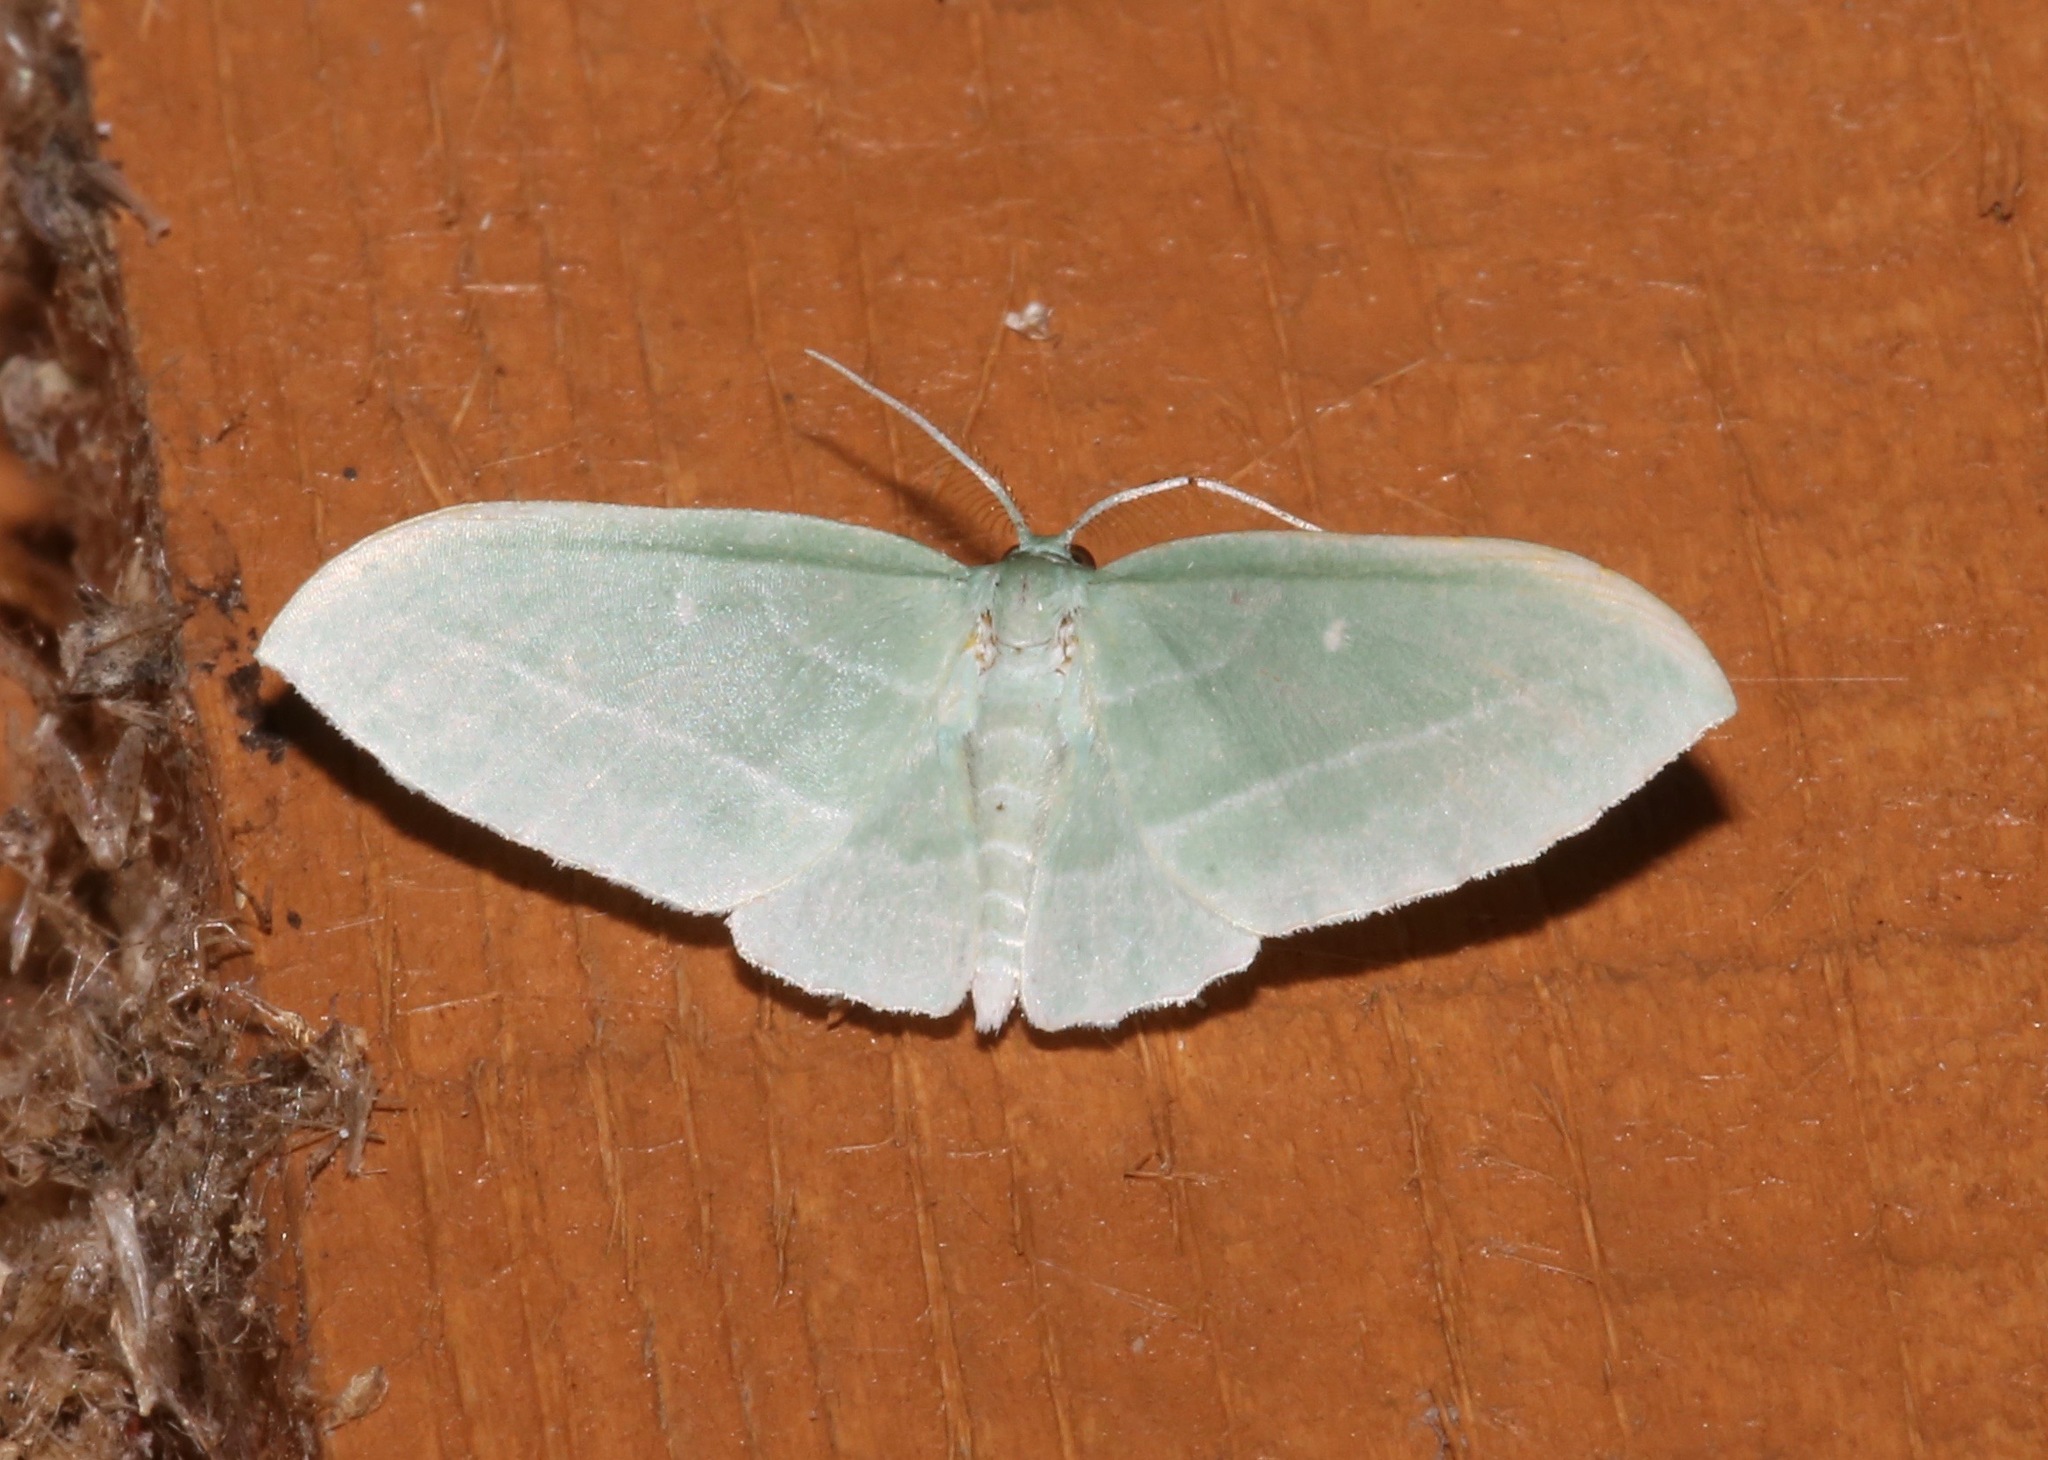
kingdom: Animalia
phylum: Arthropoda
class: Insecta
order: Lepidoptera
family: Geometridae
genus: Dyspteris
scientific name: Dyspteris abortivaria
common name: Bad-wing
